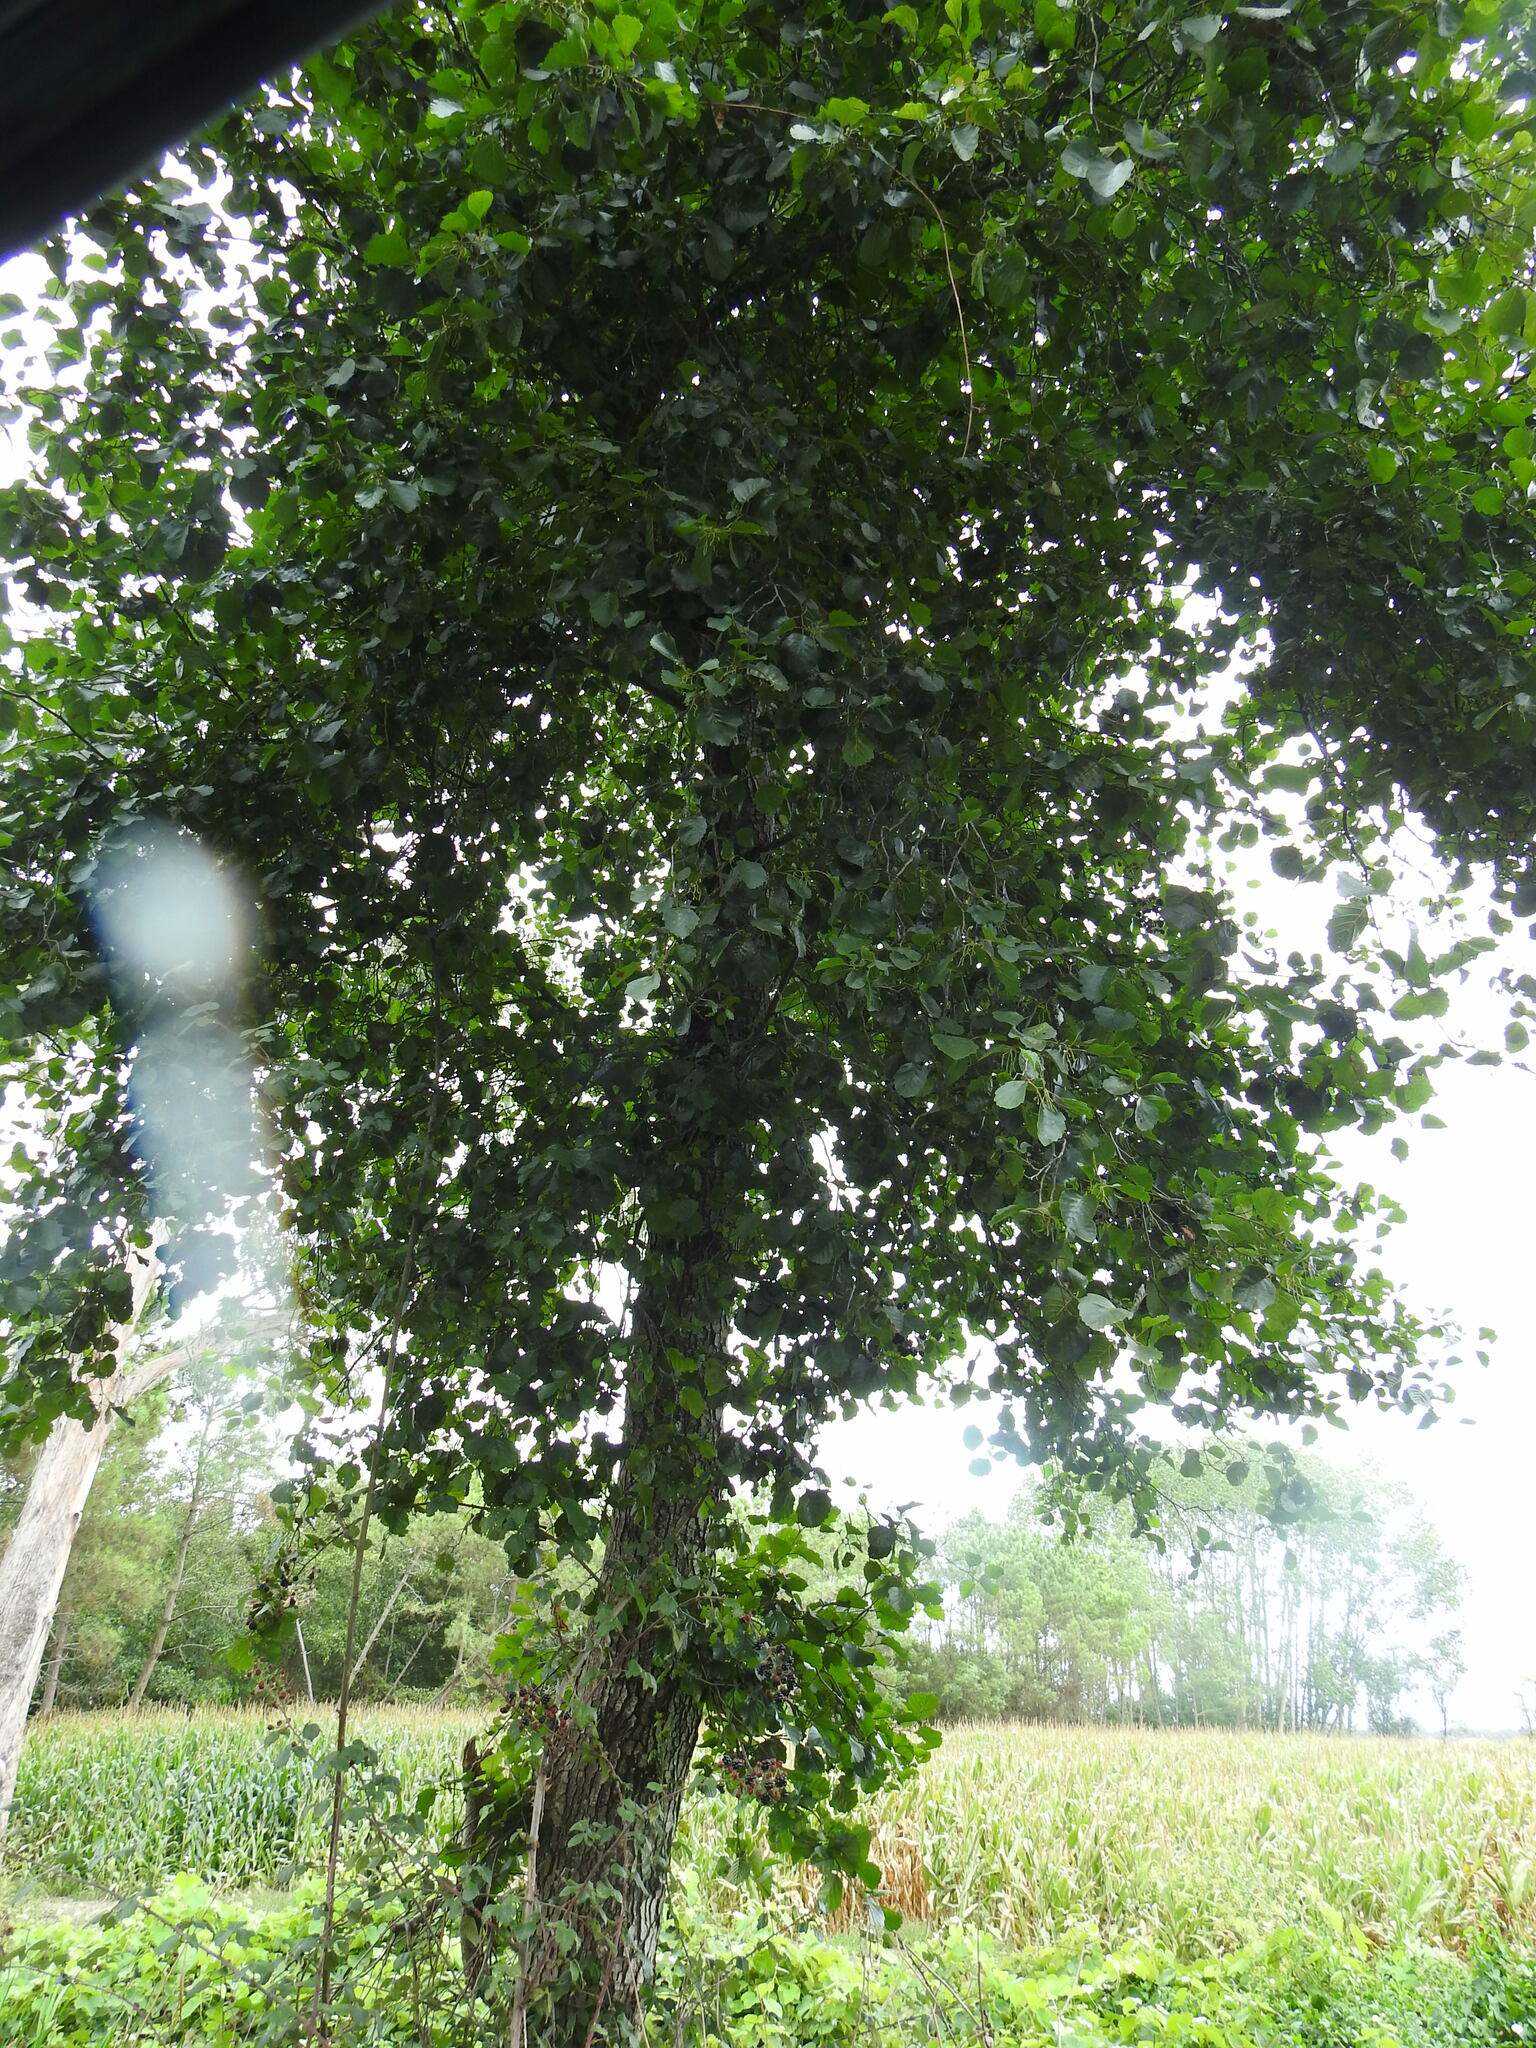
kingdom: Plantae
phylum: Tracheophyta
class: Magnoliopsida
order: Fagales
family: Betulaceae
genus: Alnus
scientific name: Alnus lusitanica
